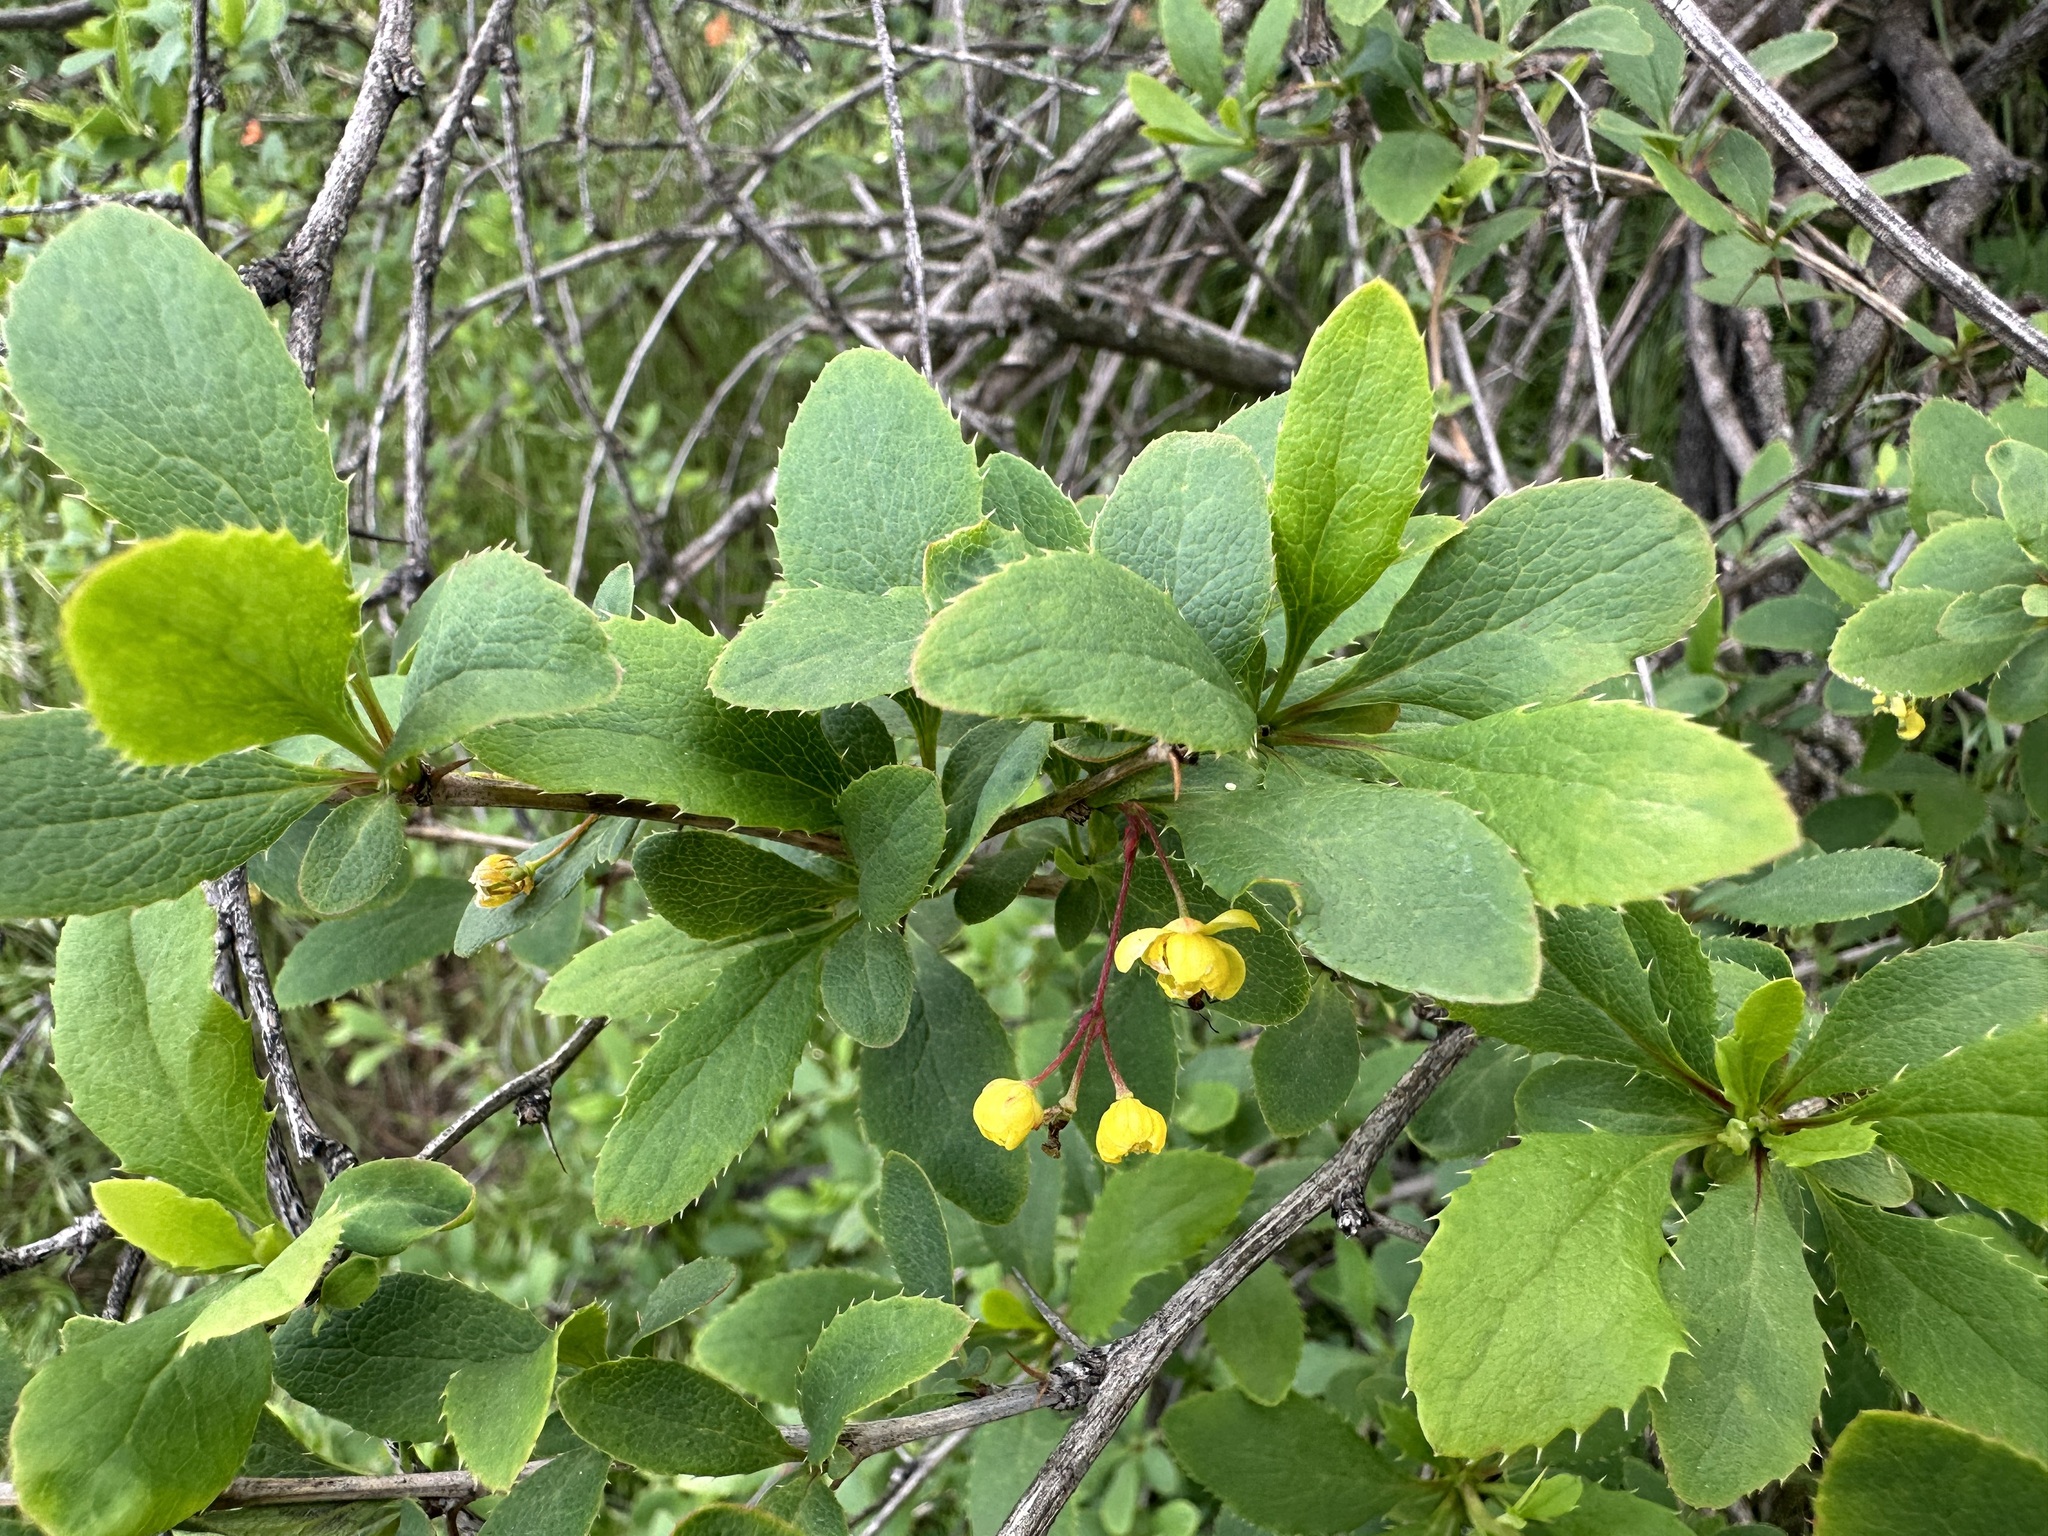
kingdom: Plantae
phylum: Tracheophyta
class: Magnoliopsida
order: Ranunculales
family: Berberidaceae
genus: Berberis
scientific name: Berberis vulgaris
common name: Barberry
